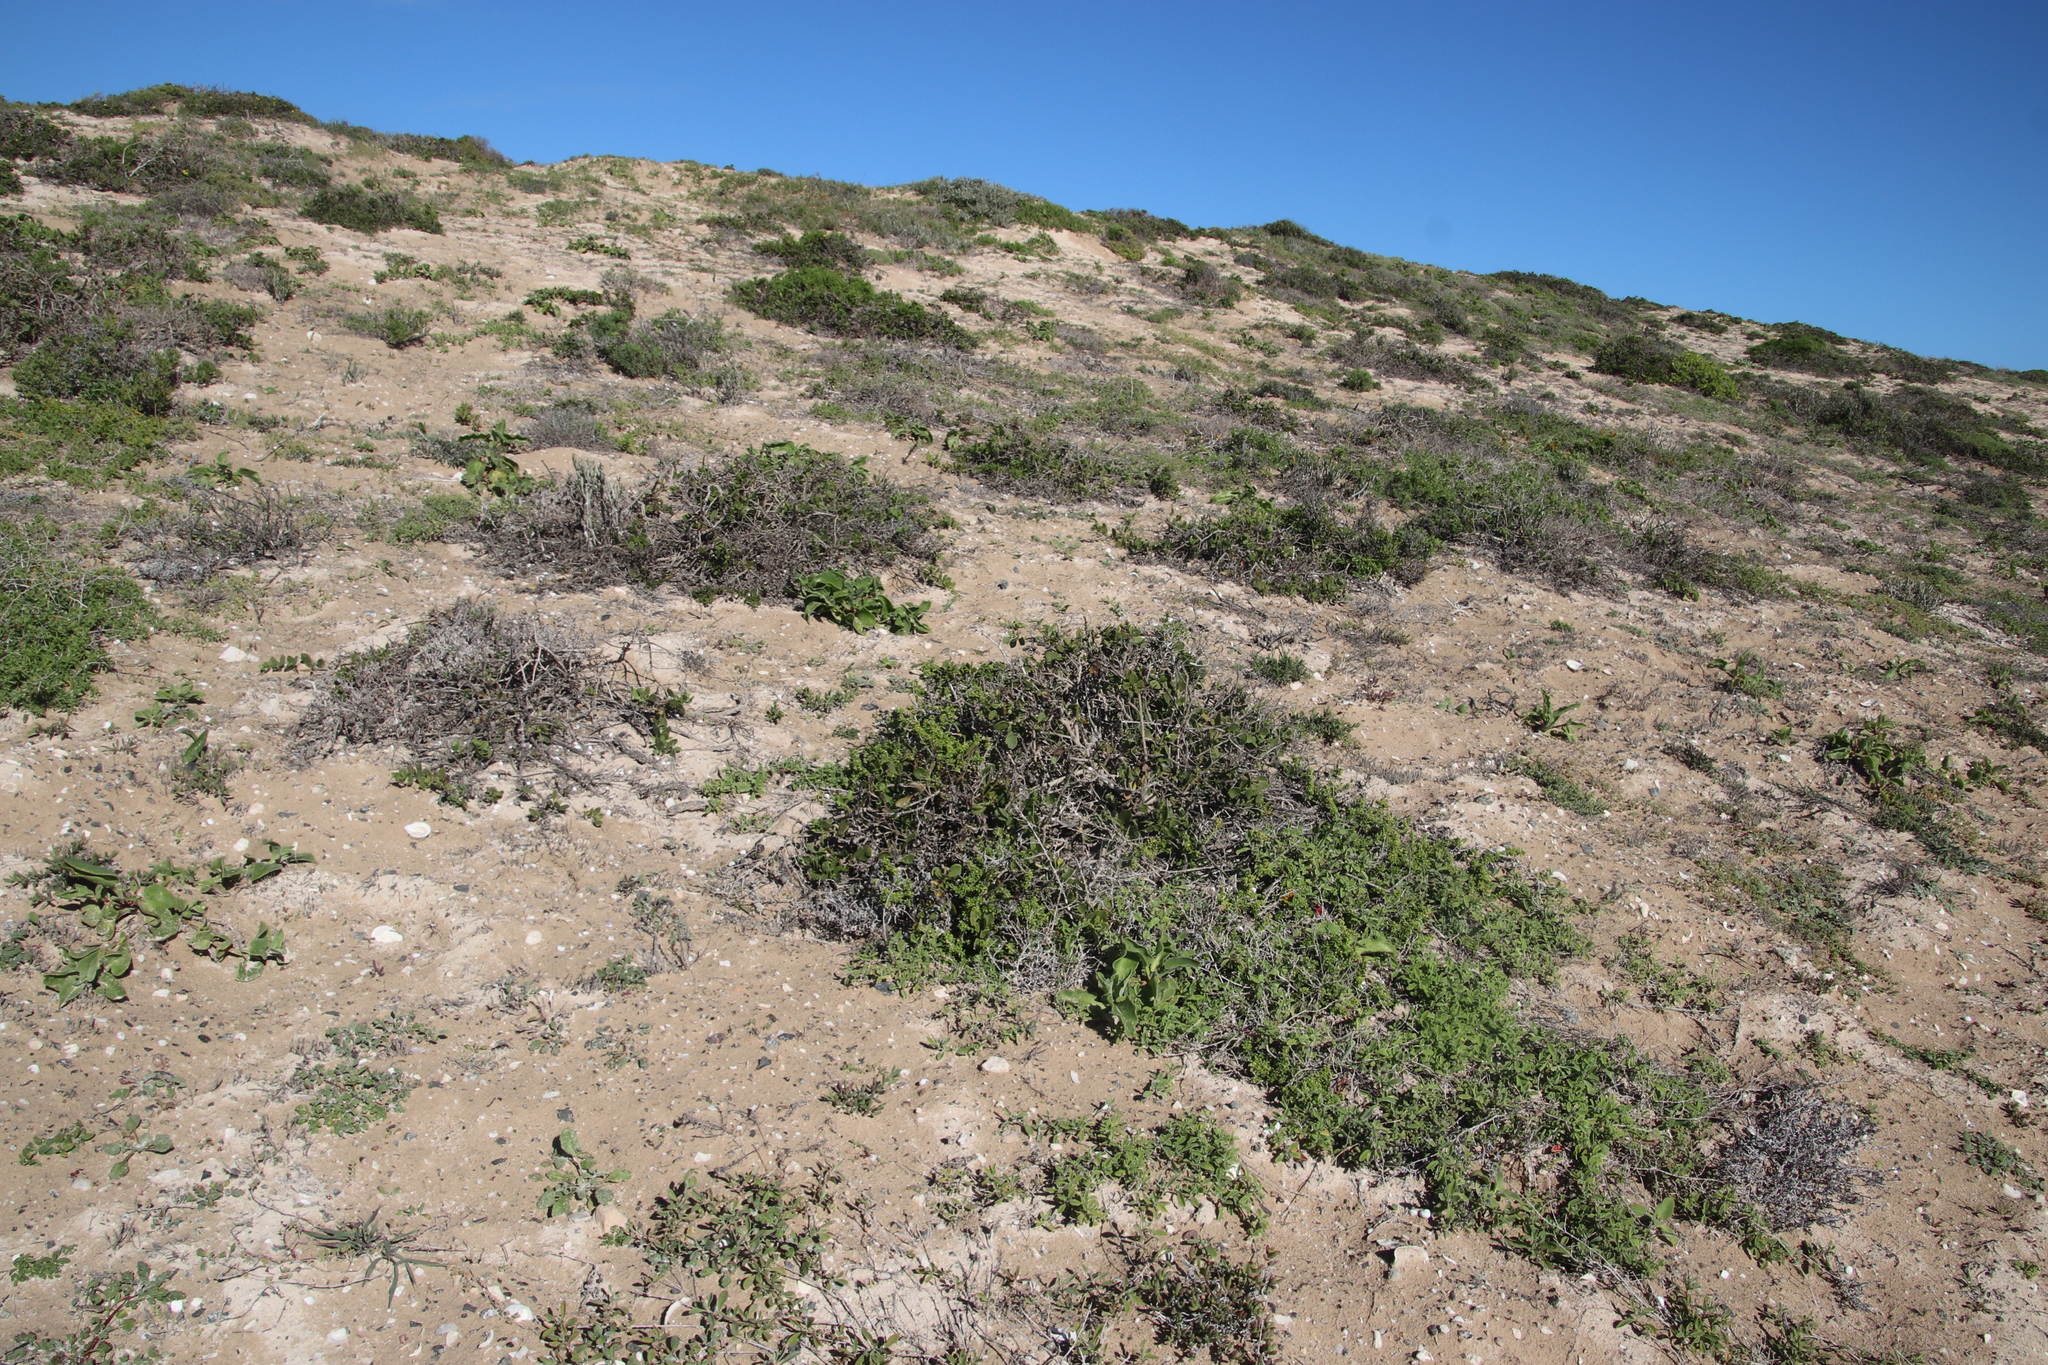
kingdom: Plantae
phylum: Tracheophyta
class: Magnoliopsida
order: Asterales
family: Asteraceae
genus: Osteospermum
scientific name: Osteospermum moniliferum
